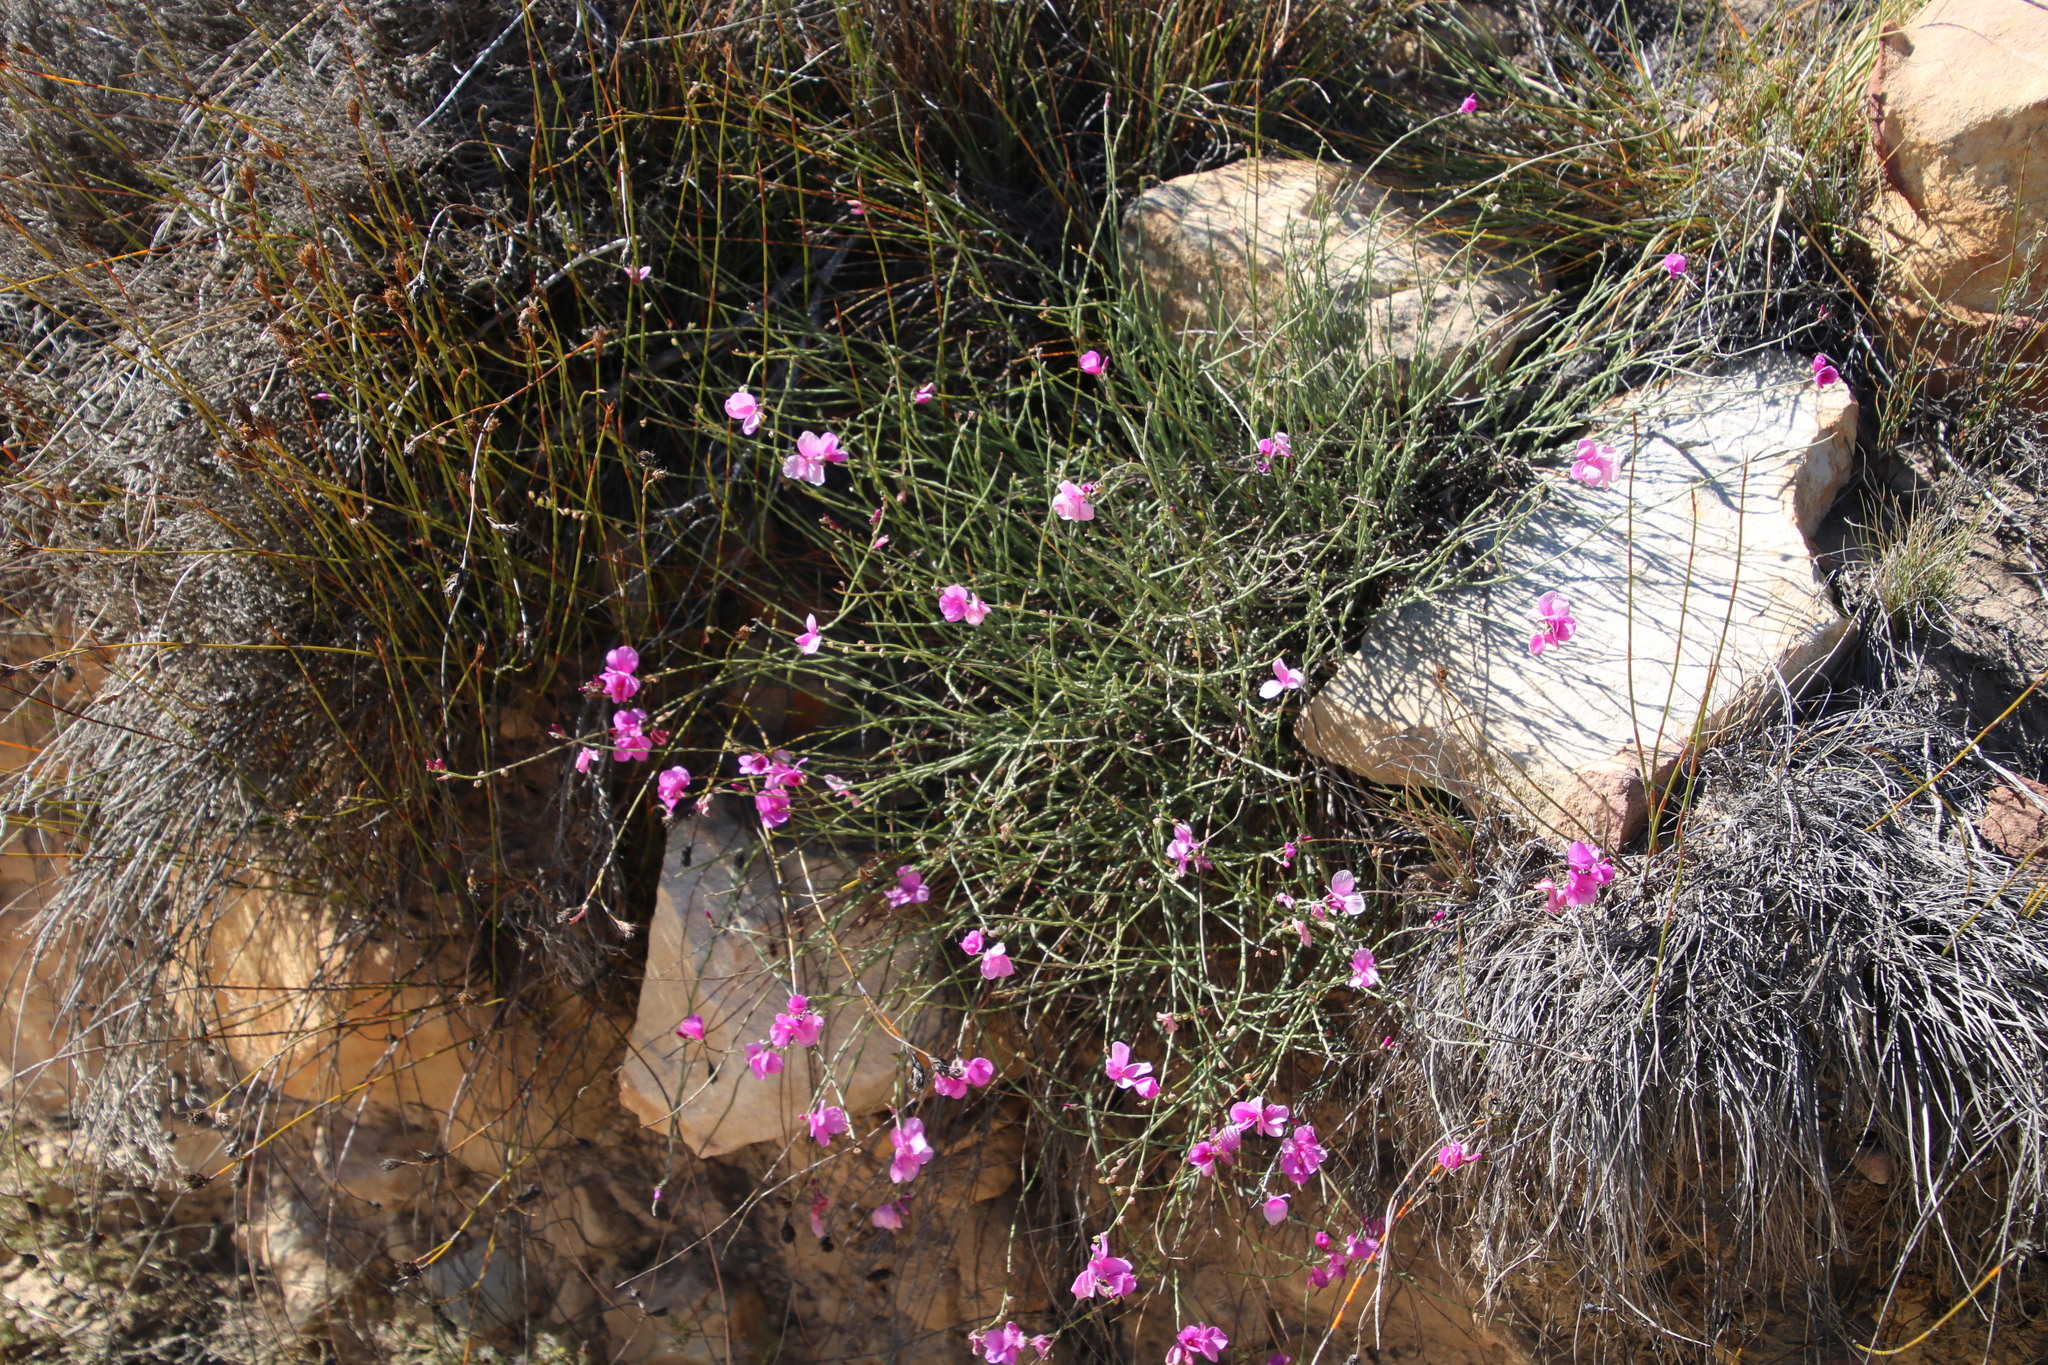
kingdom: Plantae
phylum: Tracheophyta
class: Magnoliopsida
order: Brassicales
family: Brassicaceae
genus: Heliophila
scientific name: Heliophila juncea
